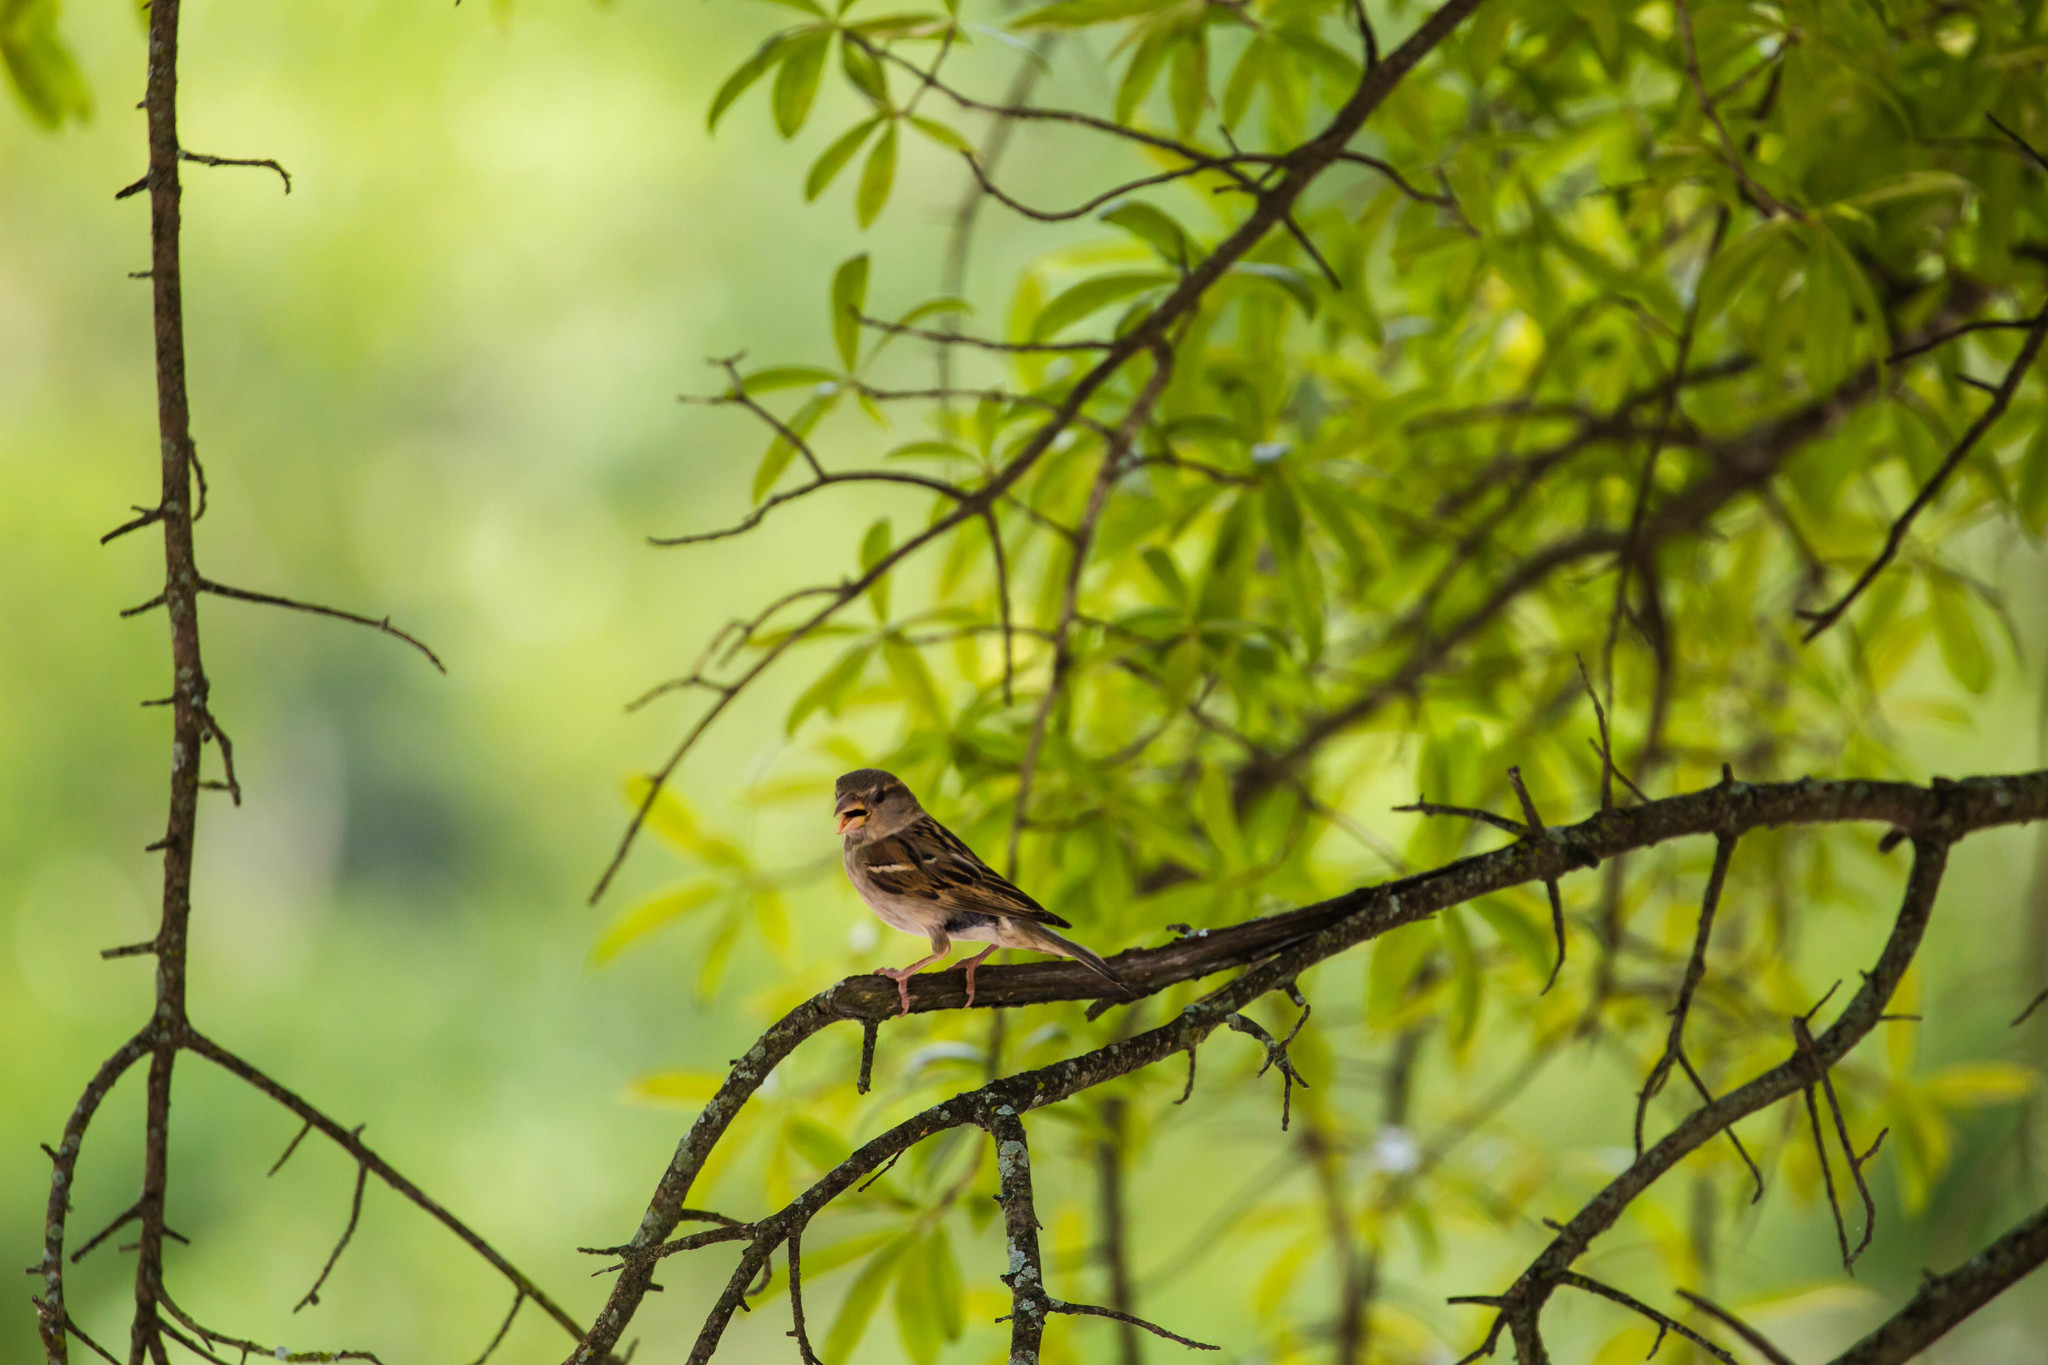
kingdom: Animalia
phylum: Chordata
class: Aves
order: Passeriformes
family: Passeridae
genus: Passer
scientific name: Passer domesticus
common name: House sparrow
